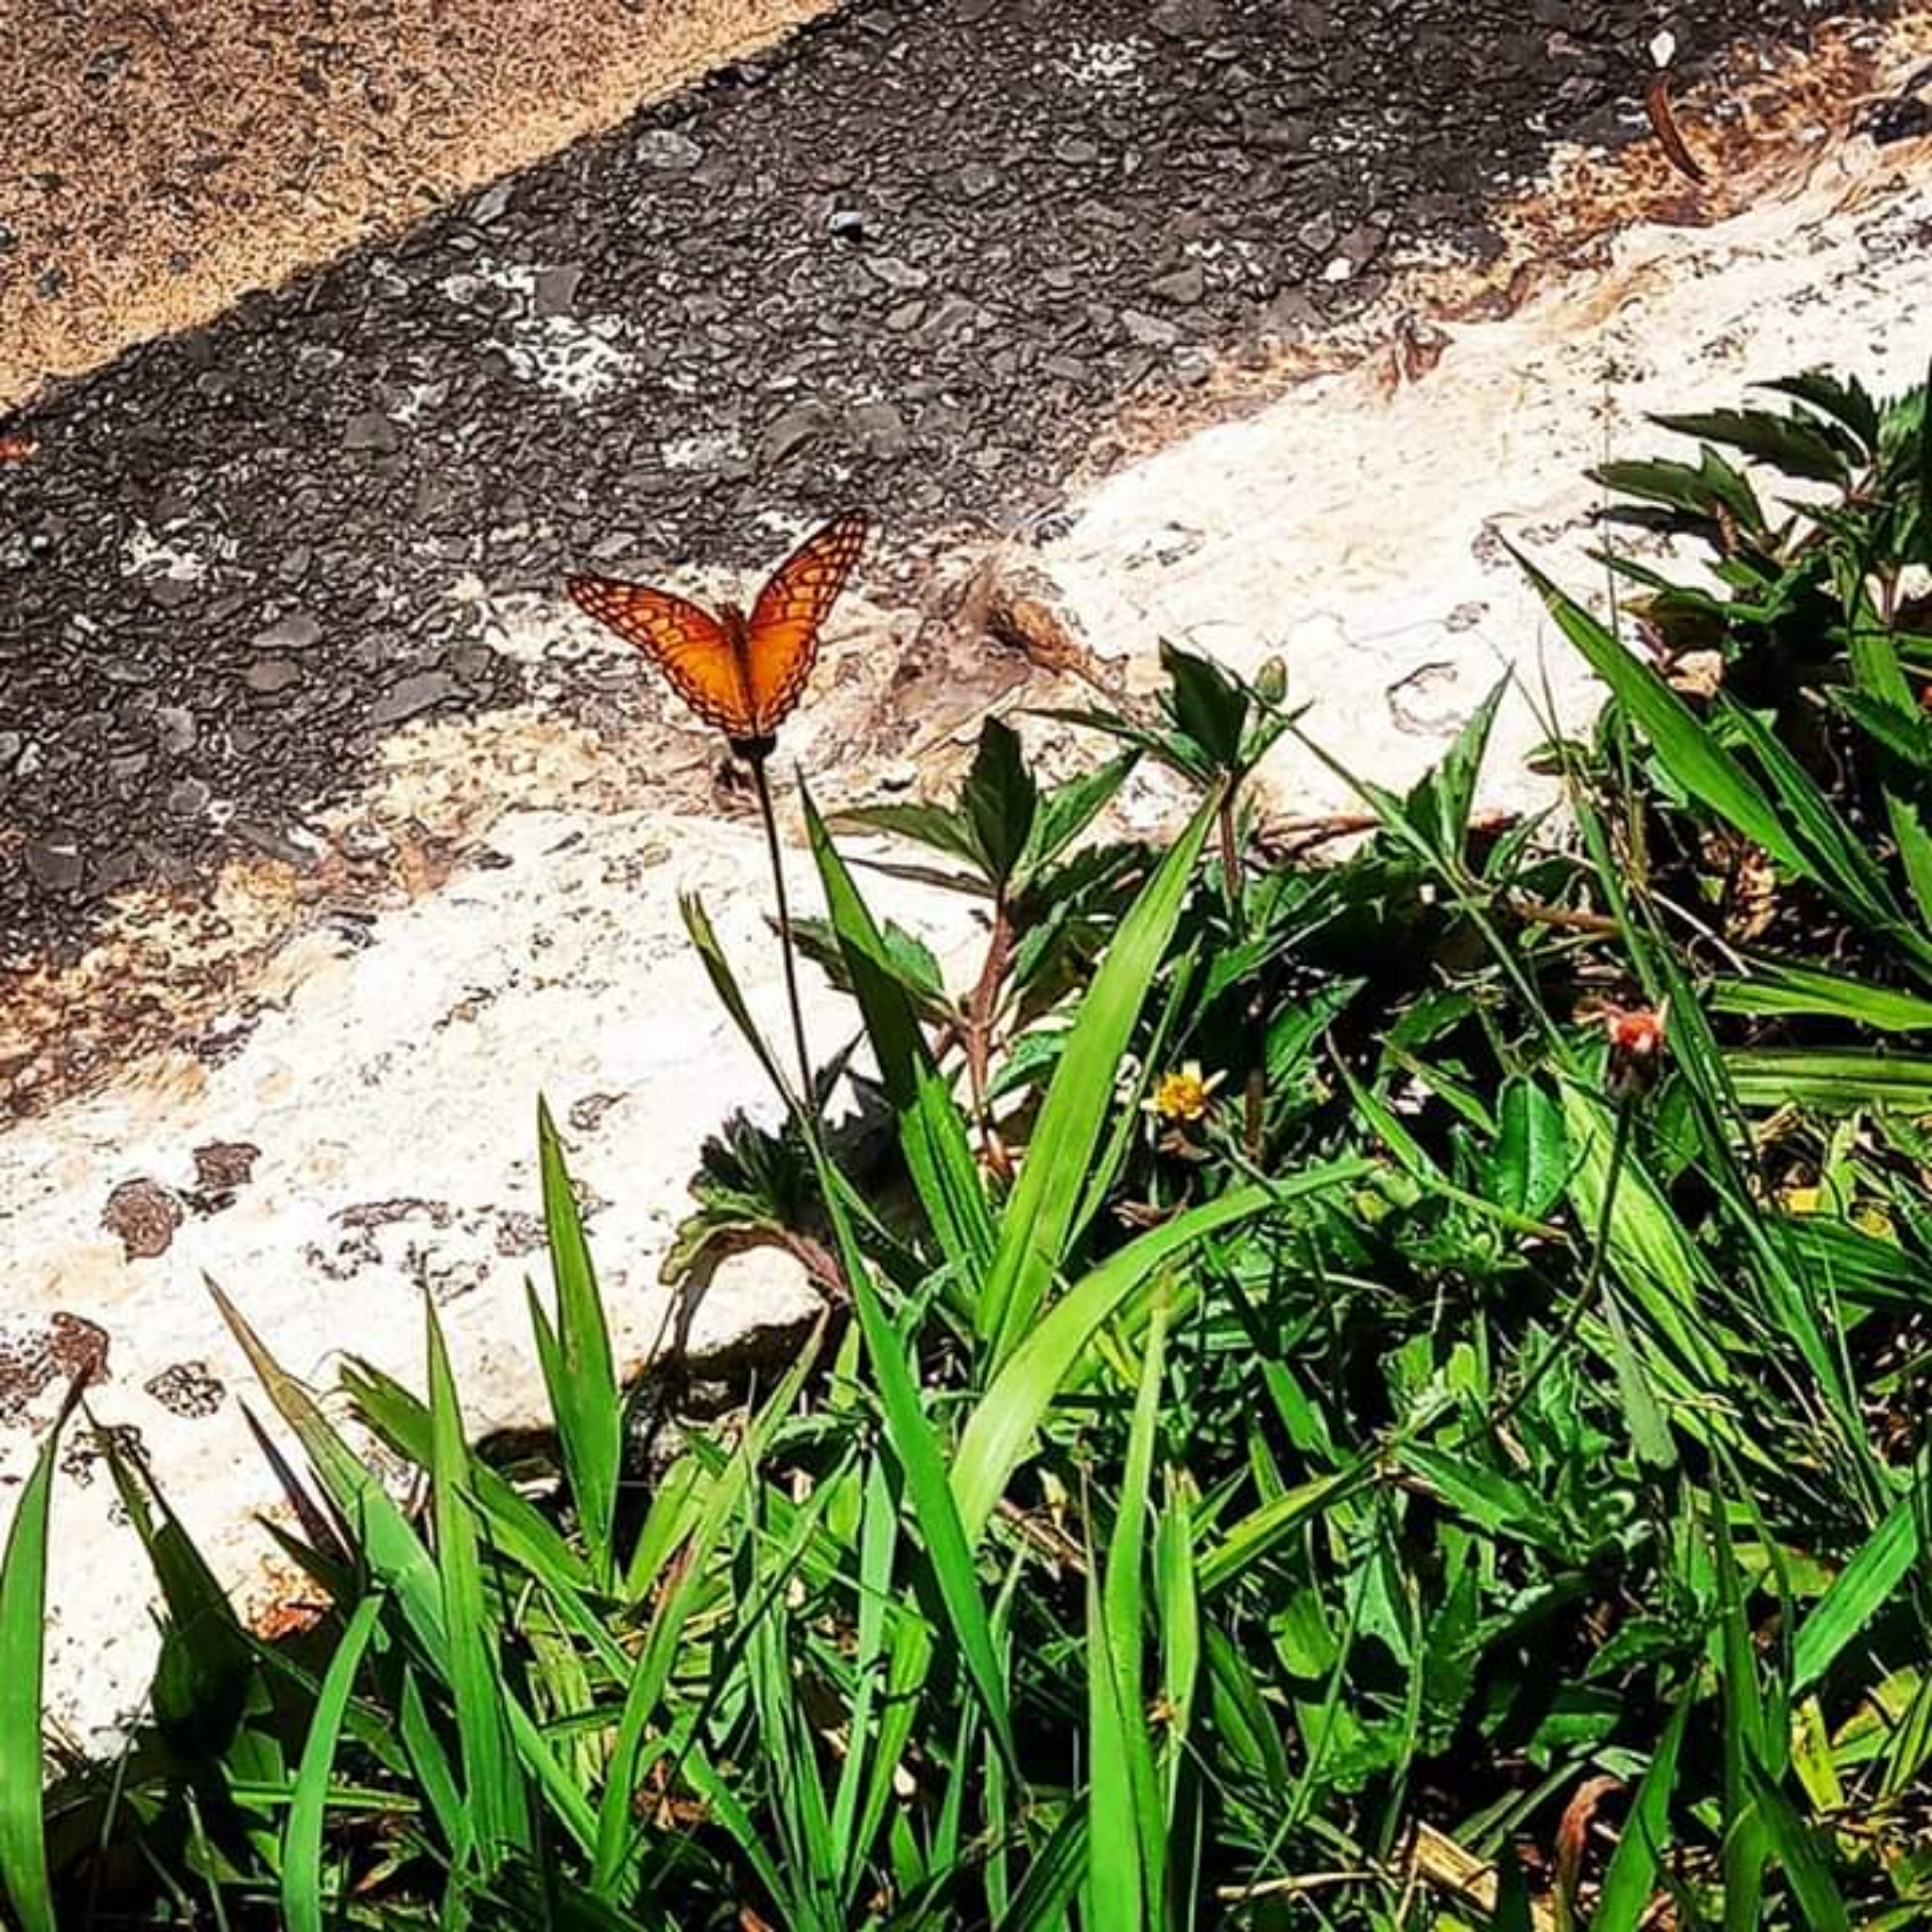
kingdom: Animalia
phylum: Arthropoda
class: Insecta
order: Lepidoptera
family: Nymphalidae
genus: Euptoieta
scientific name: Euptoieta hegesia
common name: Mexican fritillary
